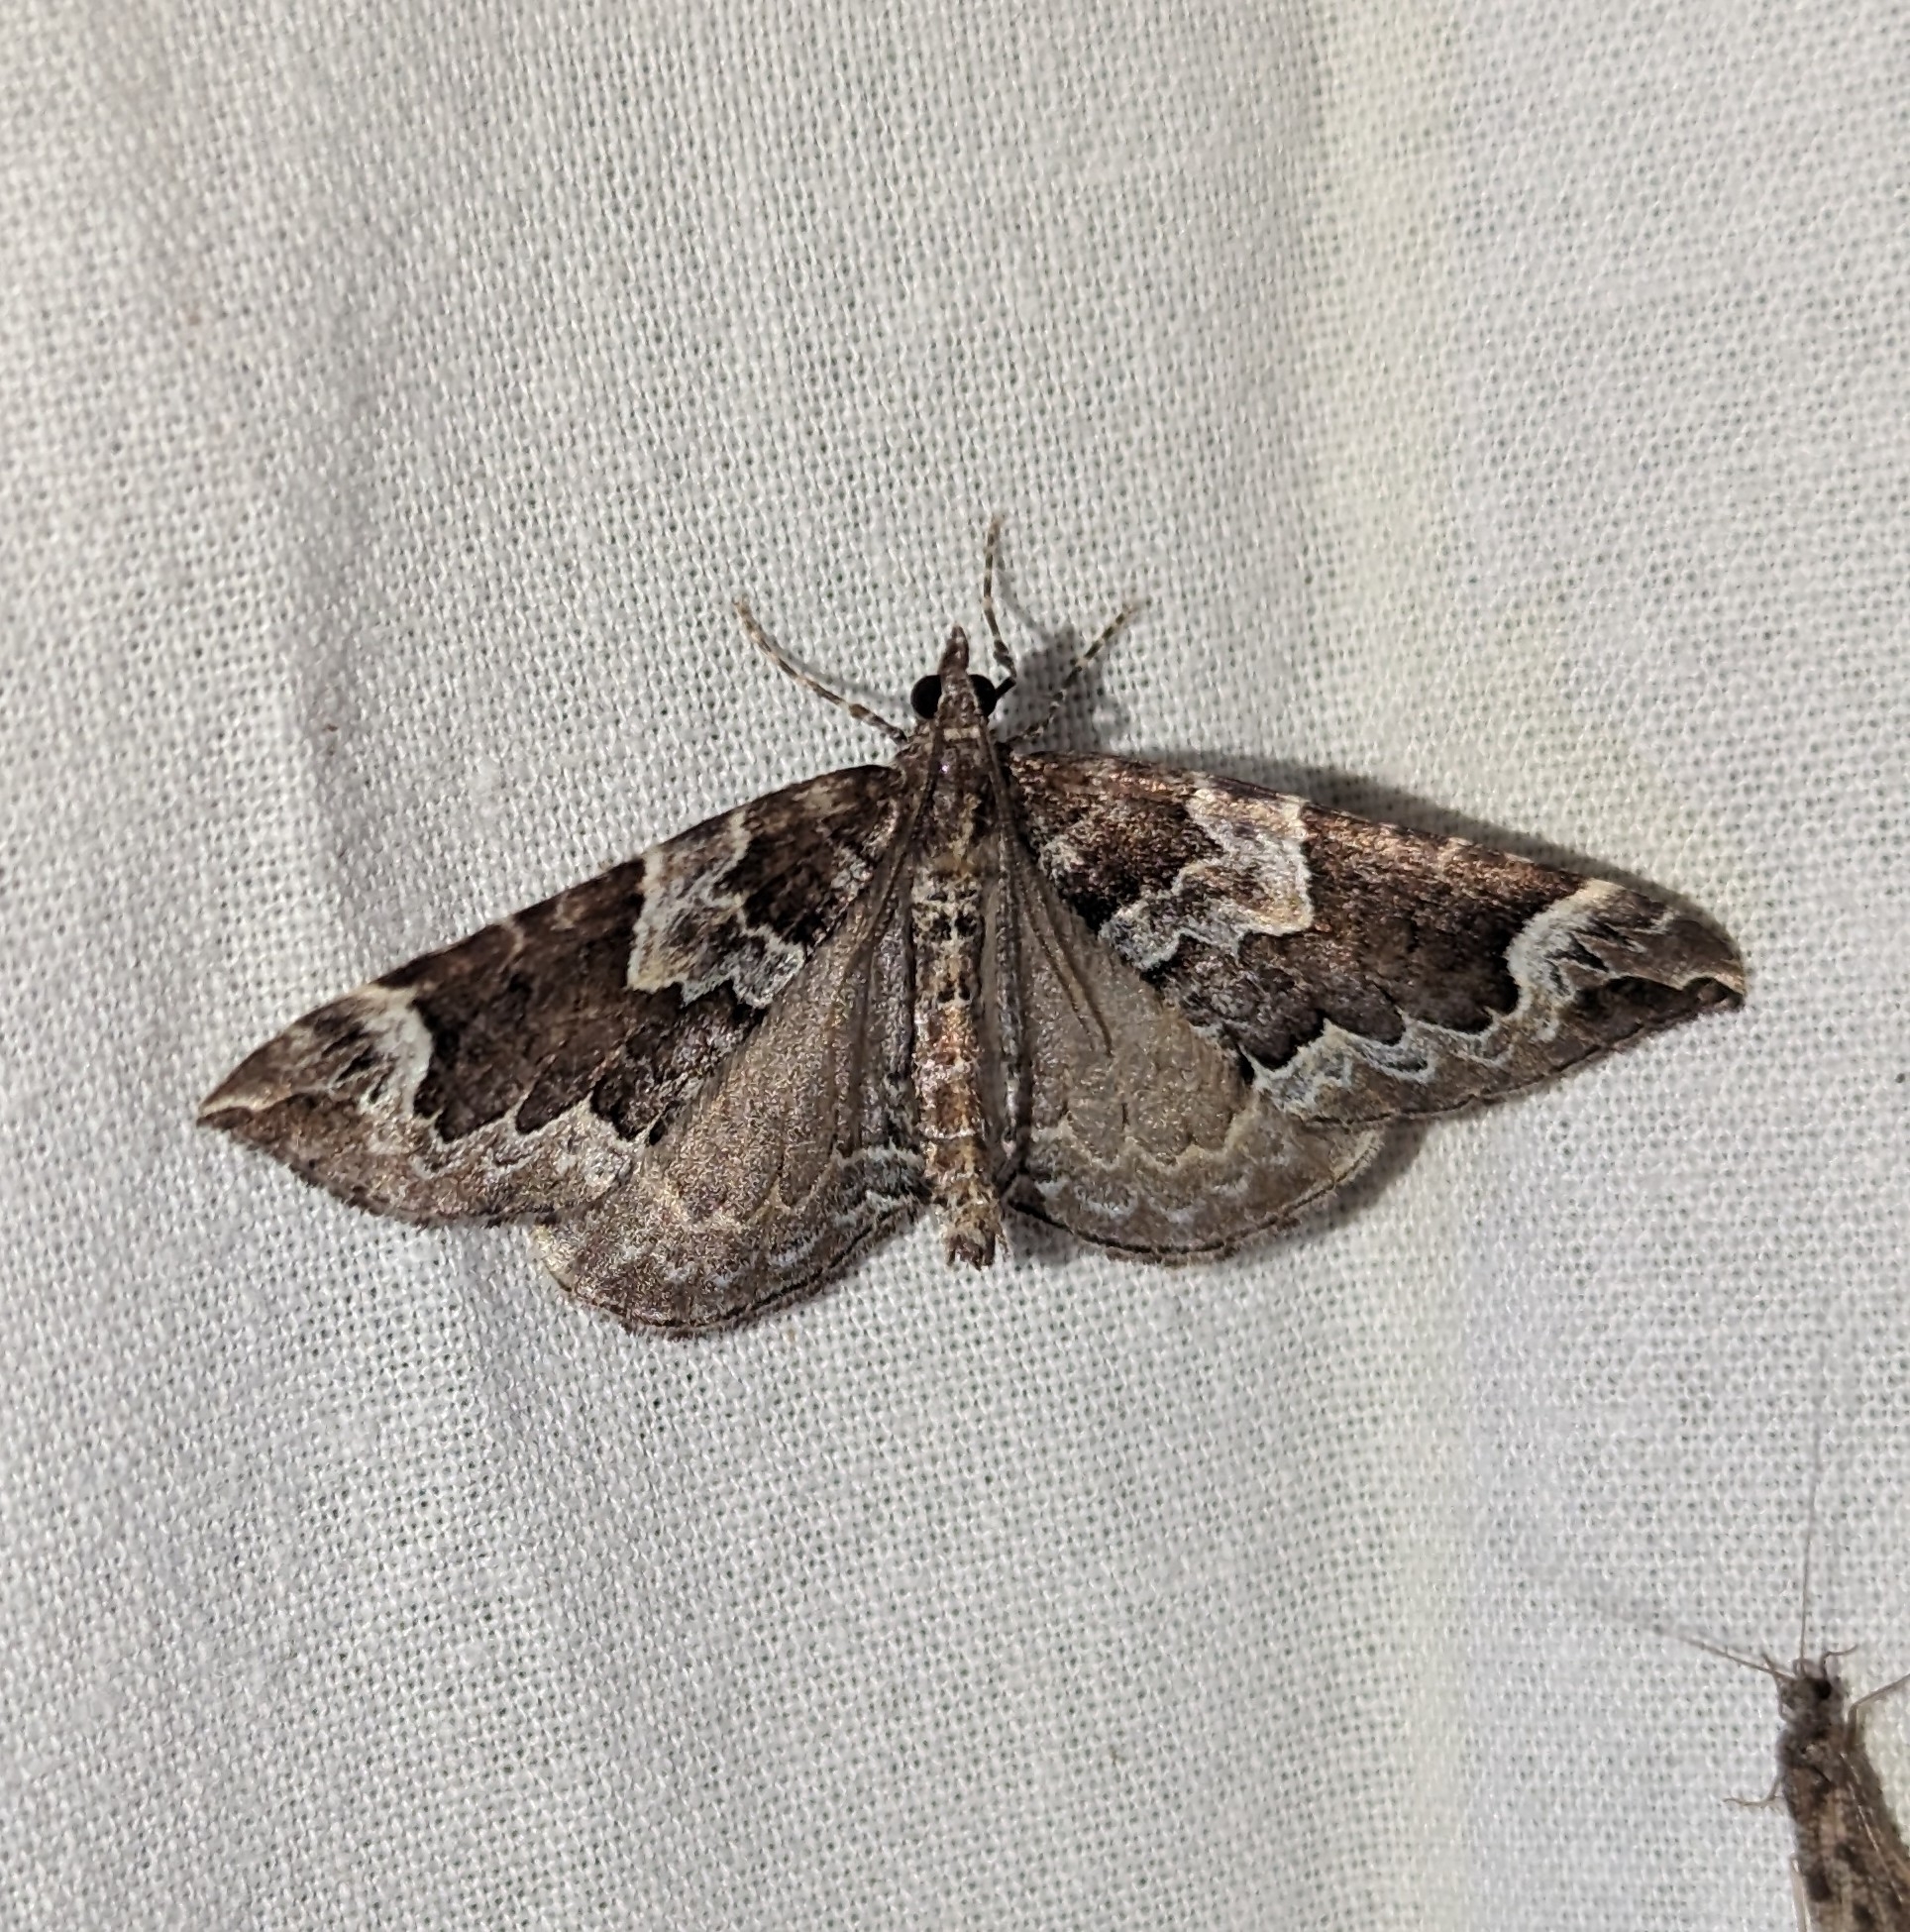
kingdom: Animalia
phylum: Arthropoda
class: Insecta
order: Lepidoptera
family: Geometridae
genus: Eulithis
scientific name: Eulithis xylina
